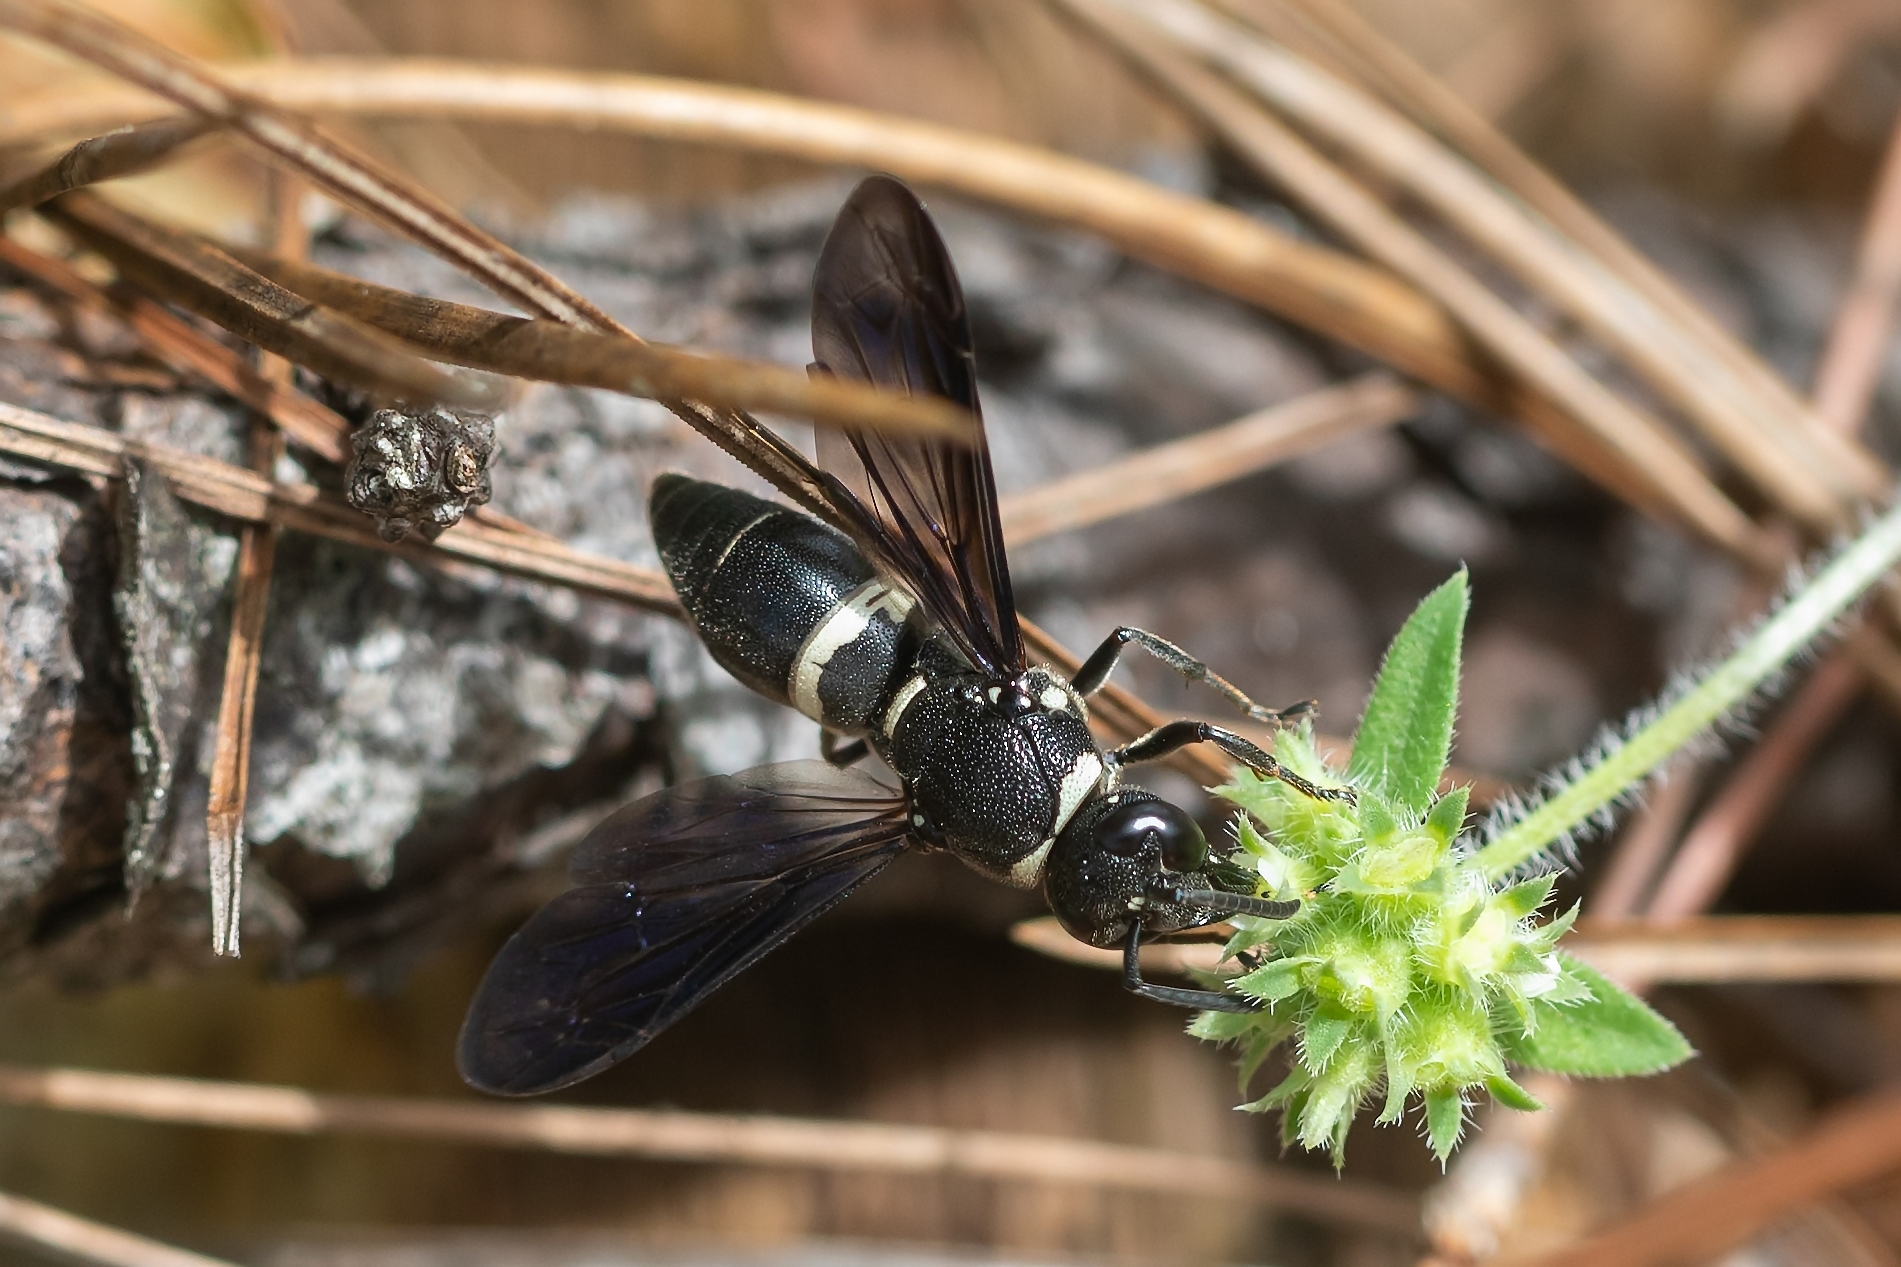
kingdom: Animalia
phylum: Arthropoda
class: Insecta
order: Hymenoptera
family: Eumenidae
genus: Euodynerus
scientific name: Euodynerus megaera
